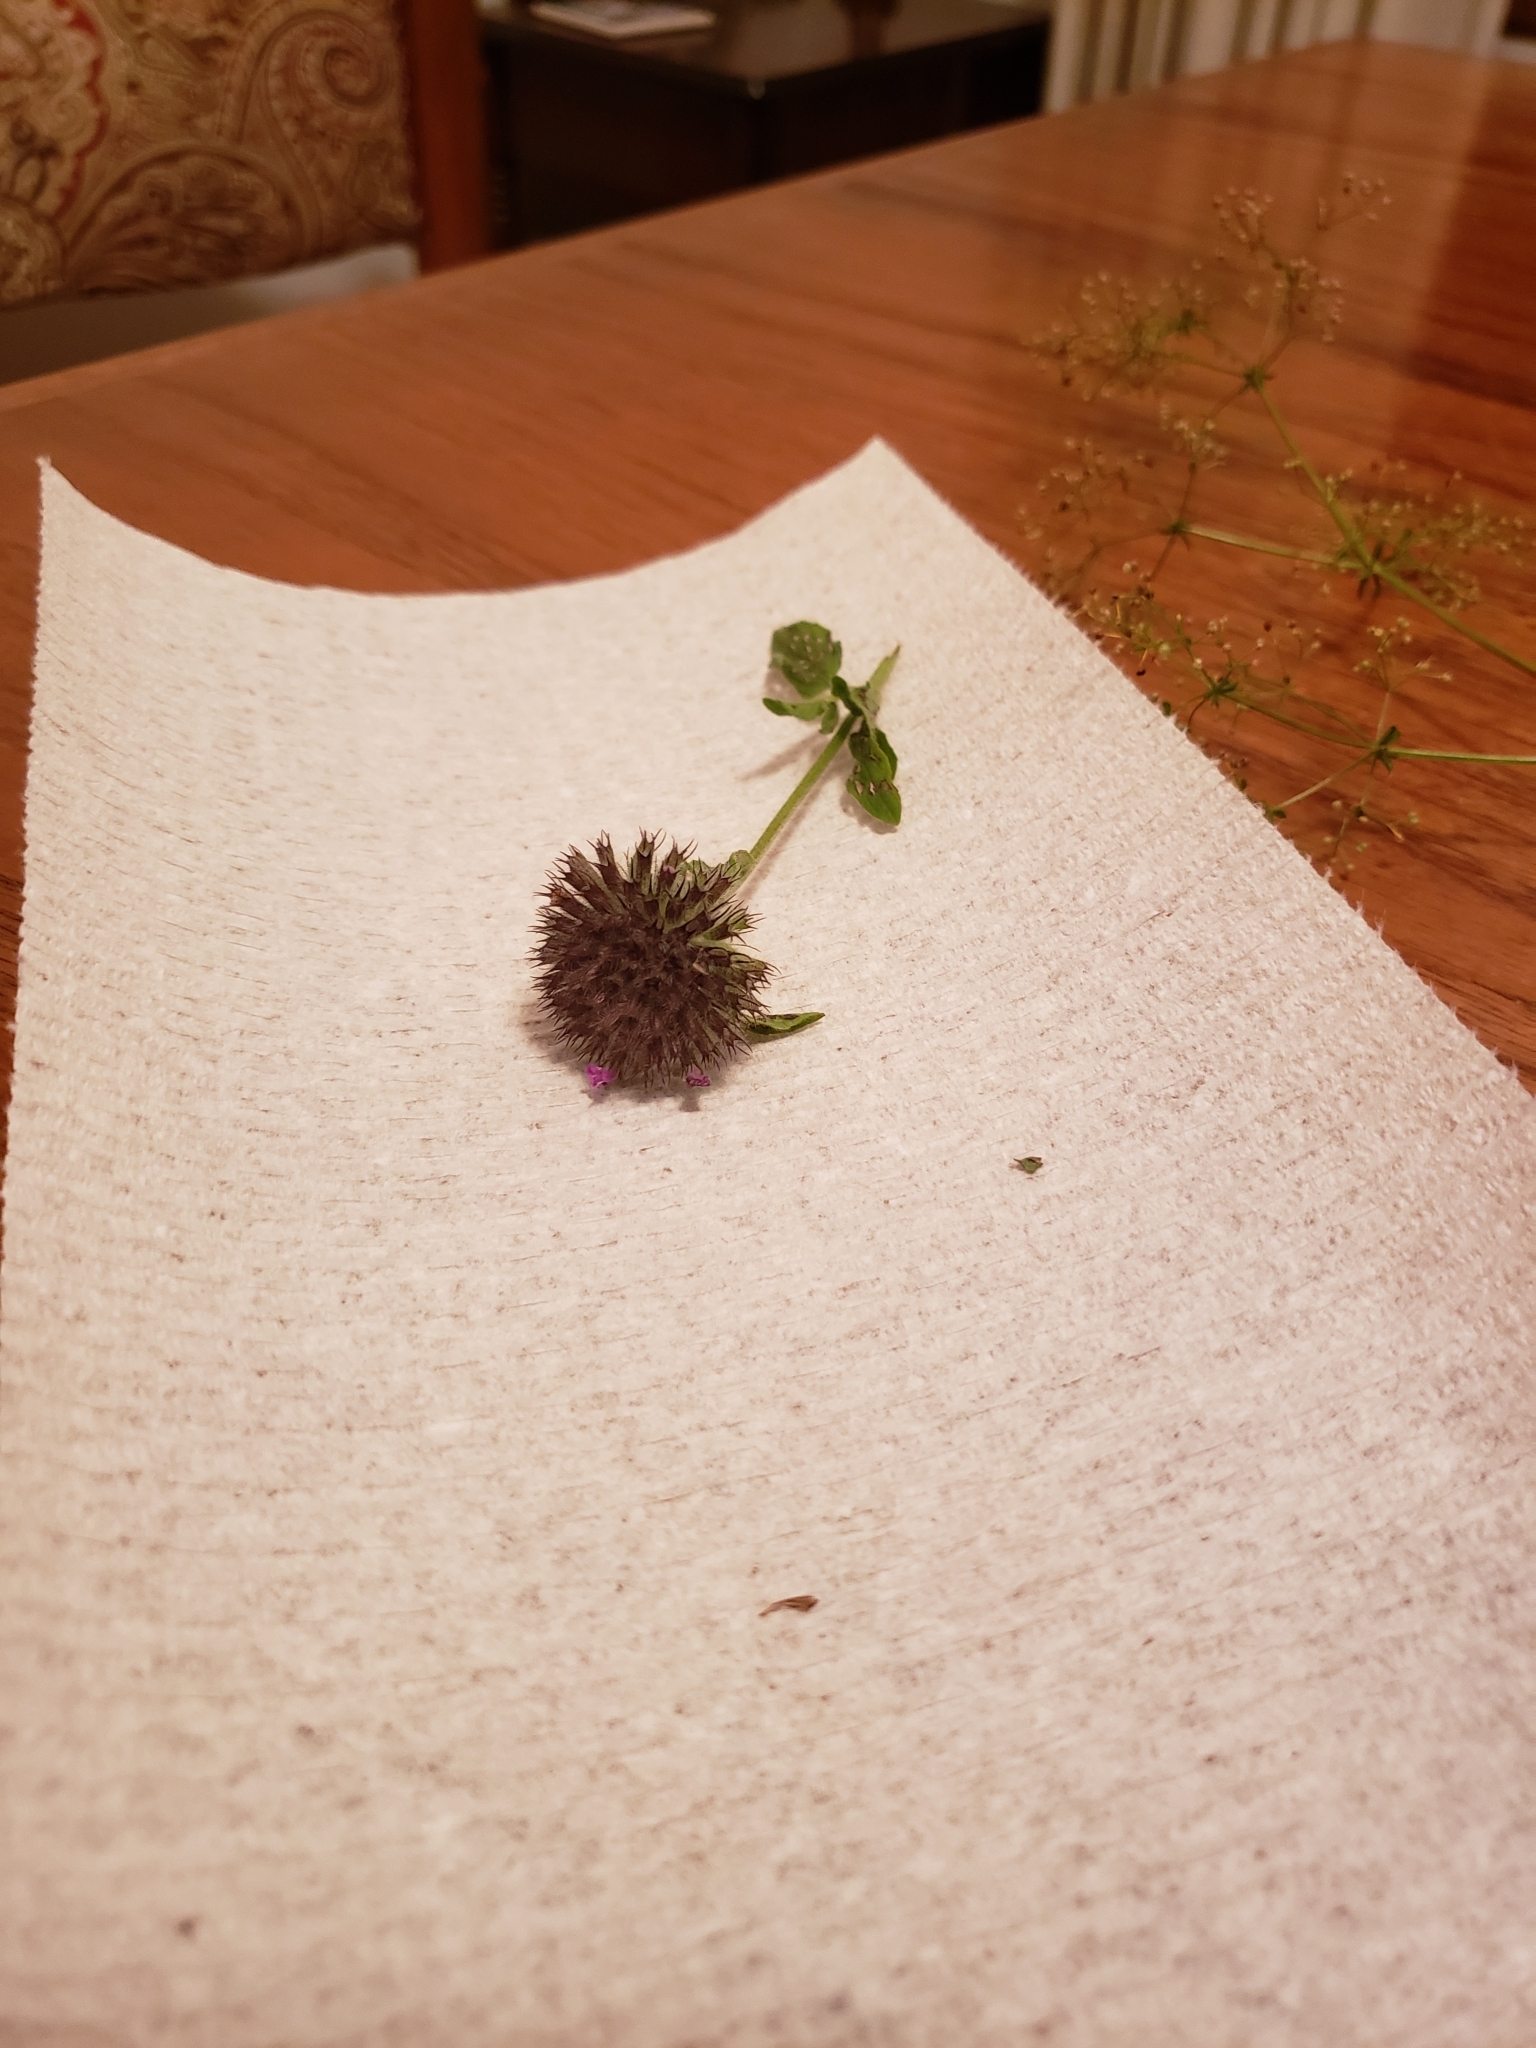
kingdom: Plantae
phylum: Tracheophyta
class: Magnoliopsida
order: Lamiales
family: Lamiaceae
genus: Clinopodium
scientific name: Clinopodium vulgare
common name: Wild basil
